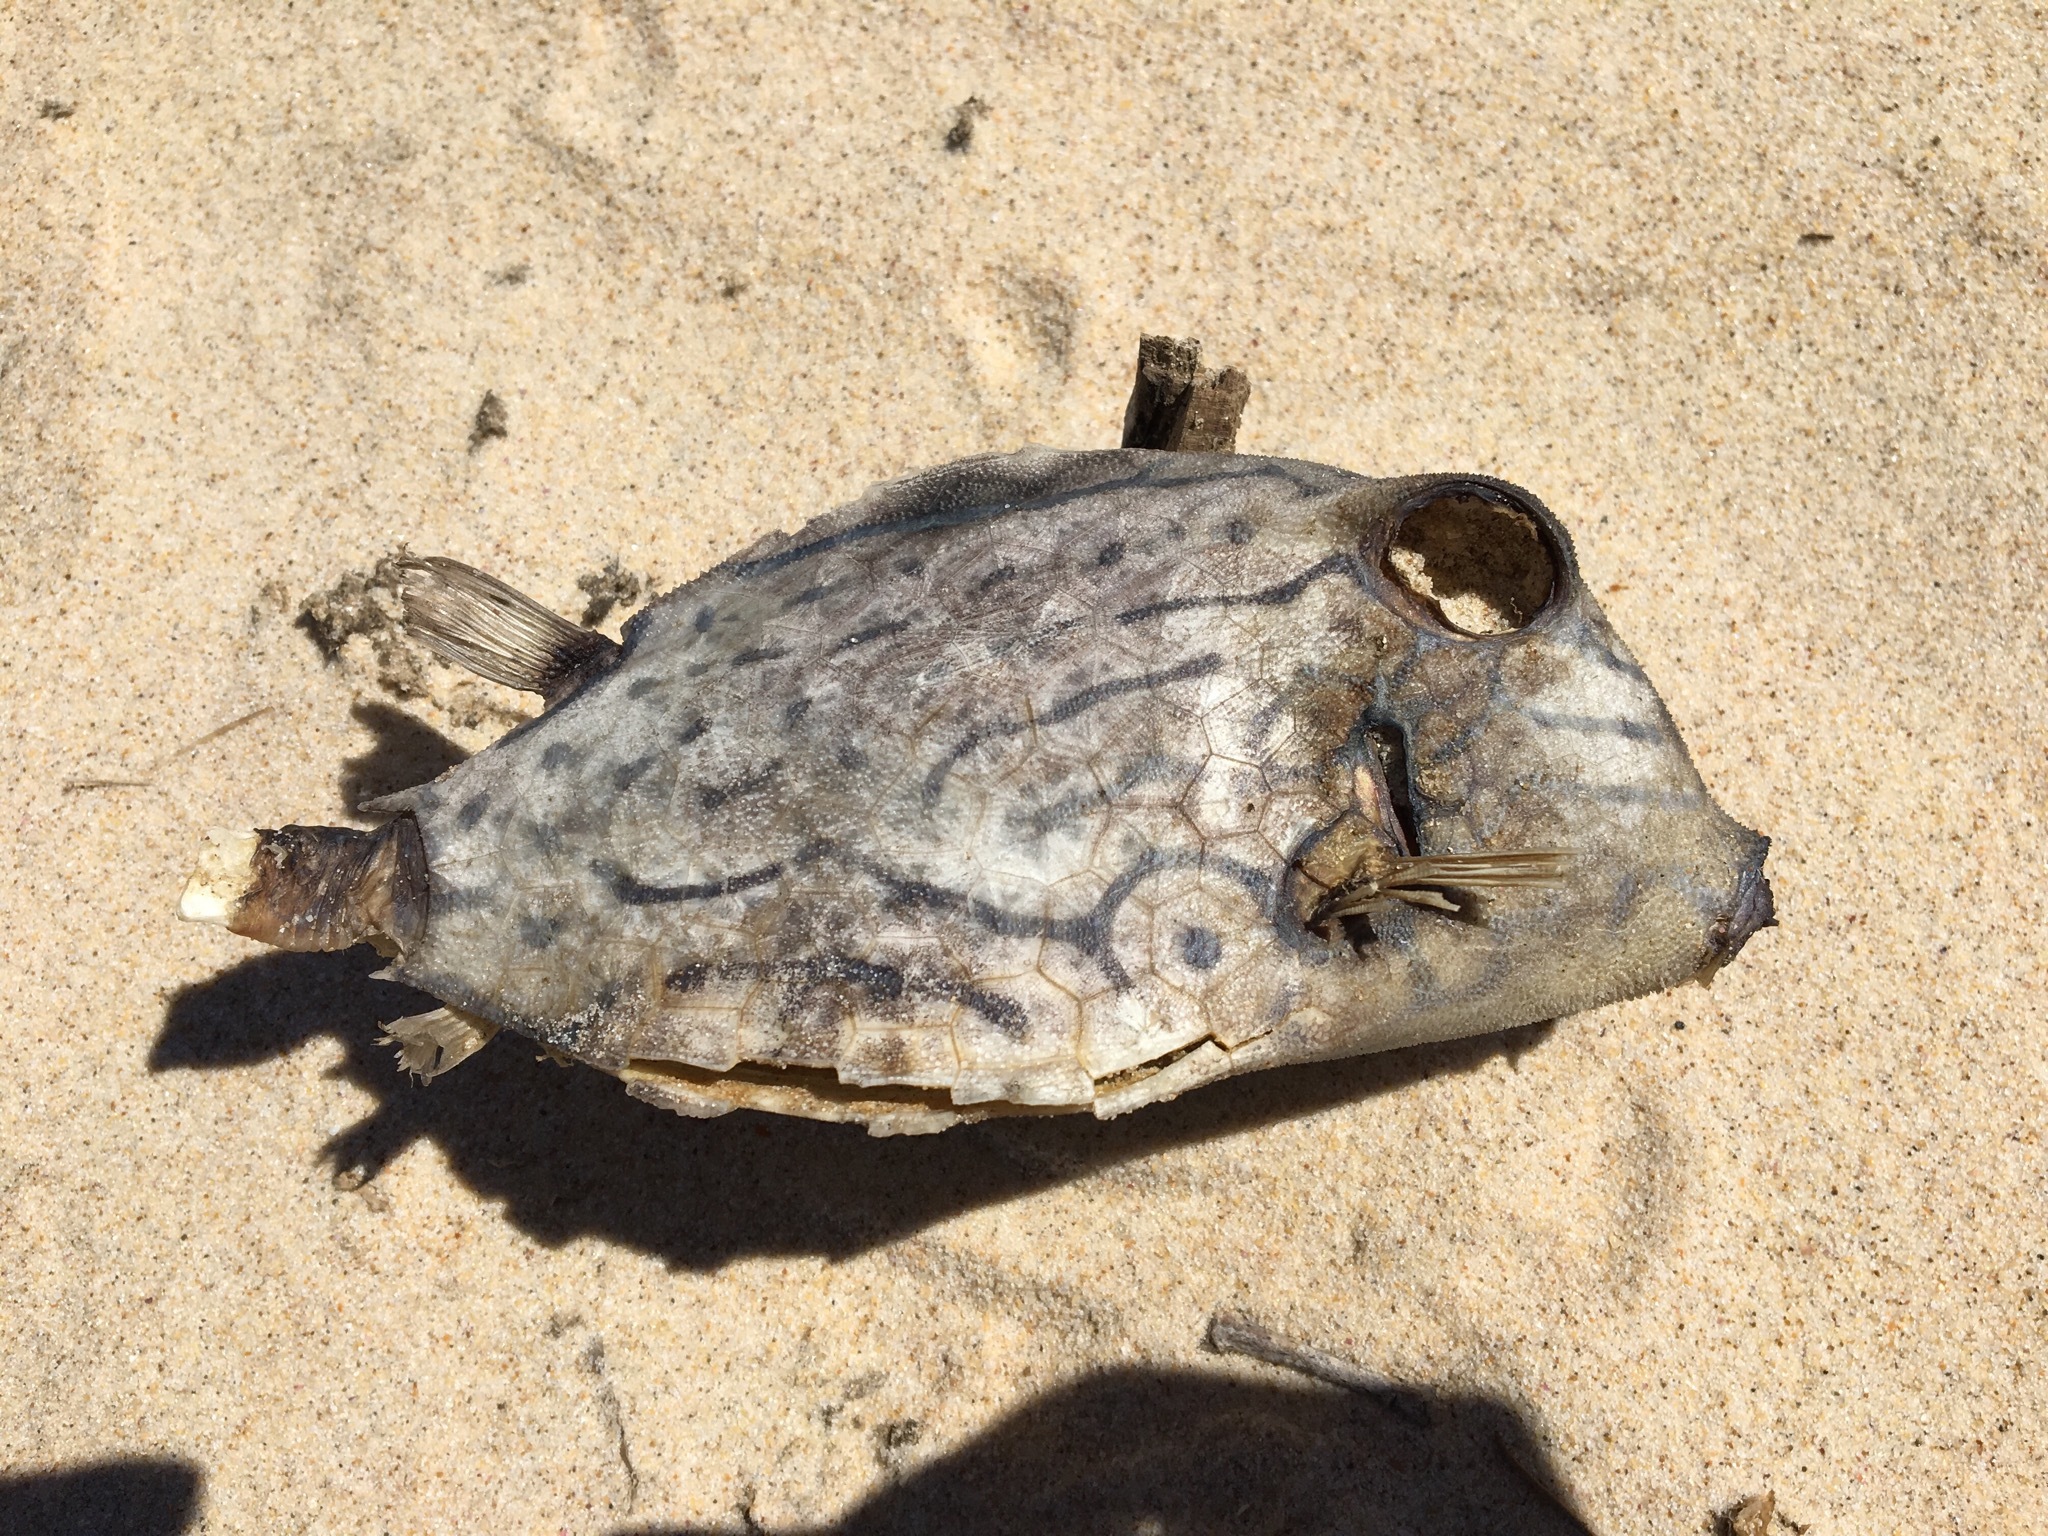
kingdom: Animalia
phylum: Chordata
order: Tetraodontiformes
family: Ostraciidae
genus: Lactoria
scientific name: Lactoria fornasini
